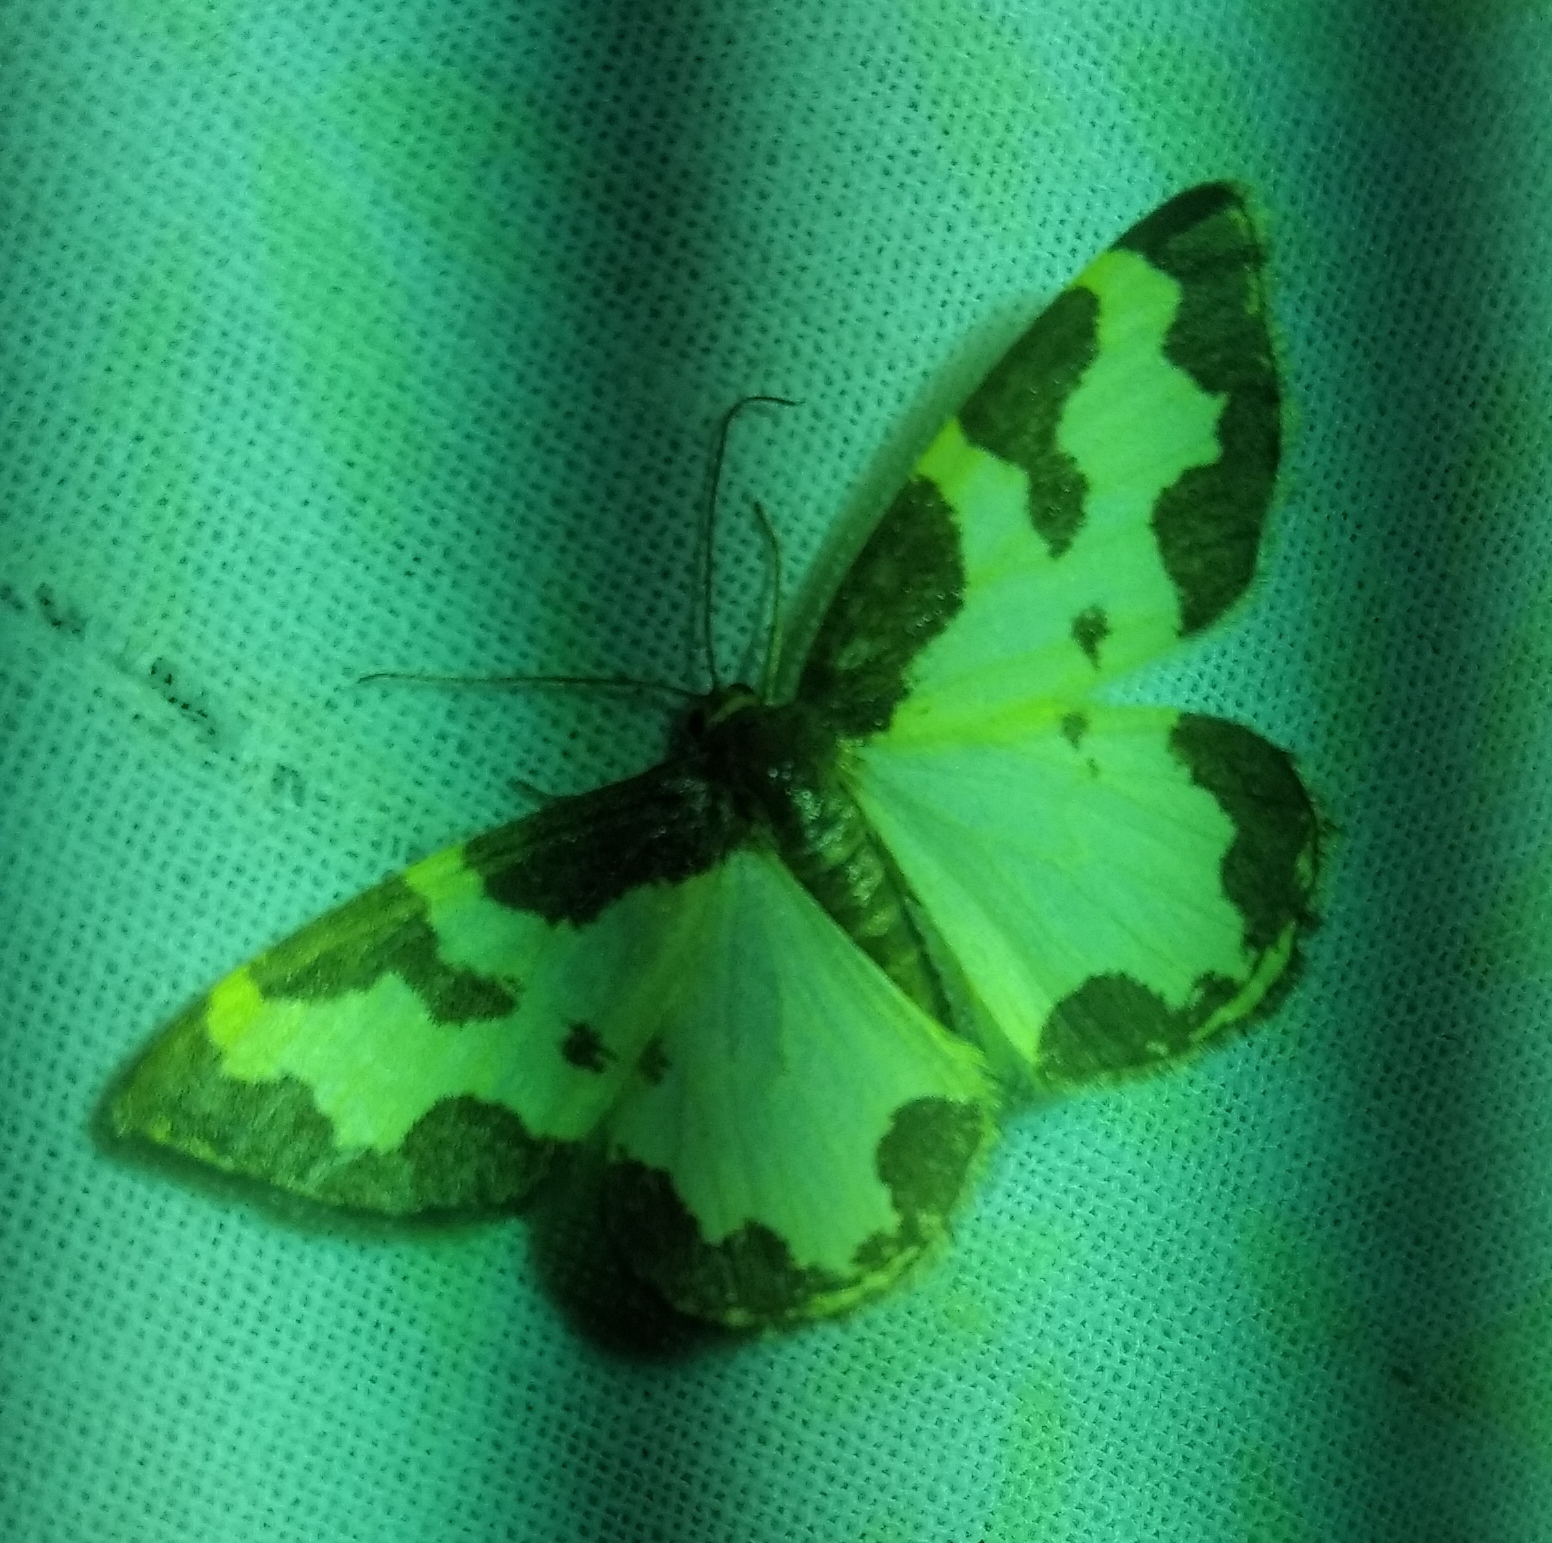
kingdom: Animalia
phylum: Arthropoda
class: Insecta
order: Lepidoptera
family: Geometridae
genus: Lomaspilis
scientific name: Lomaspilis marginata
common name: Clouded border
